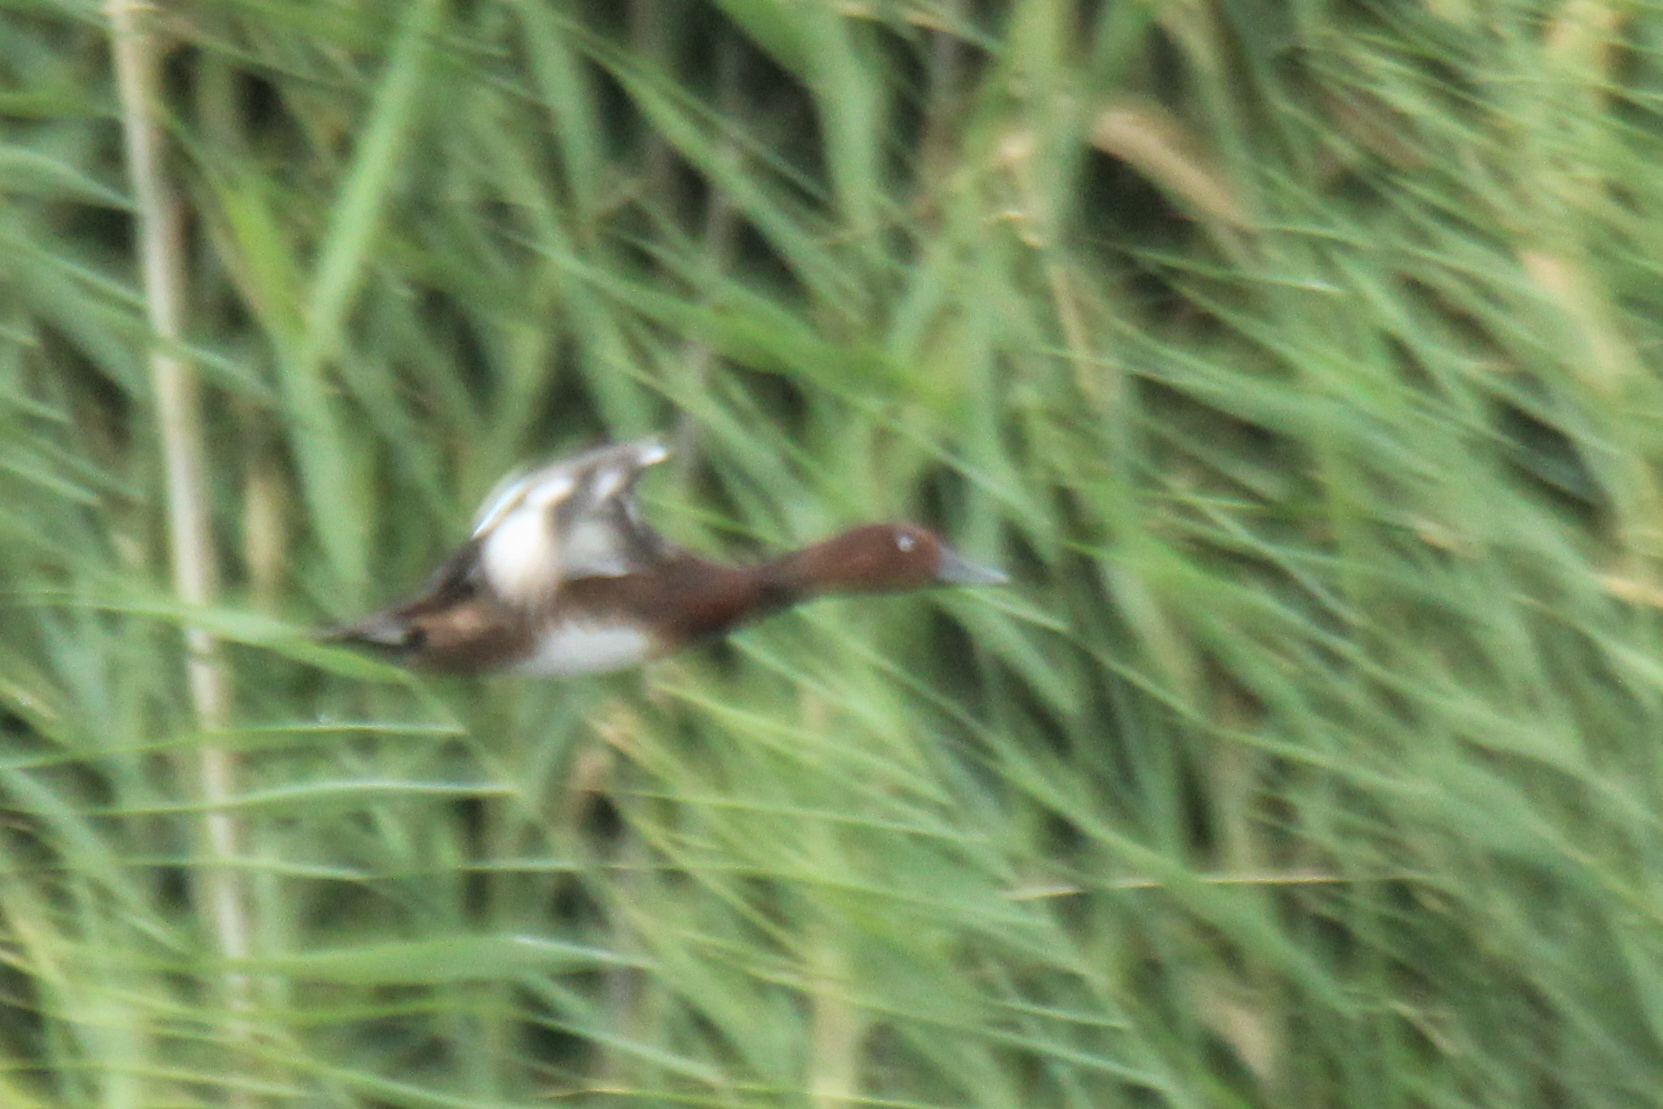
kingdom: Animalia
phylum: Chordata
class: Aves
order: Anseriformes
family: Anatidae
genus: Aythya
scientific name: Aythya nyroca
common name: Ferruginous duck
